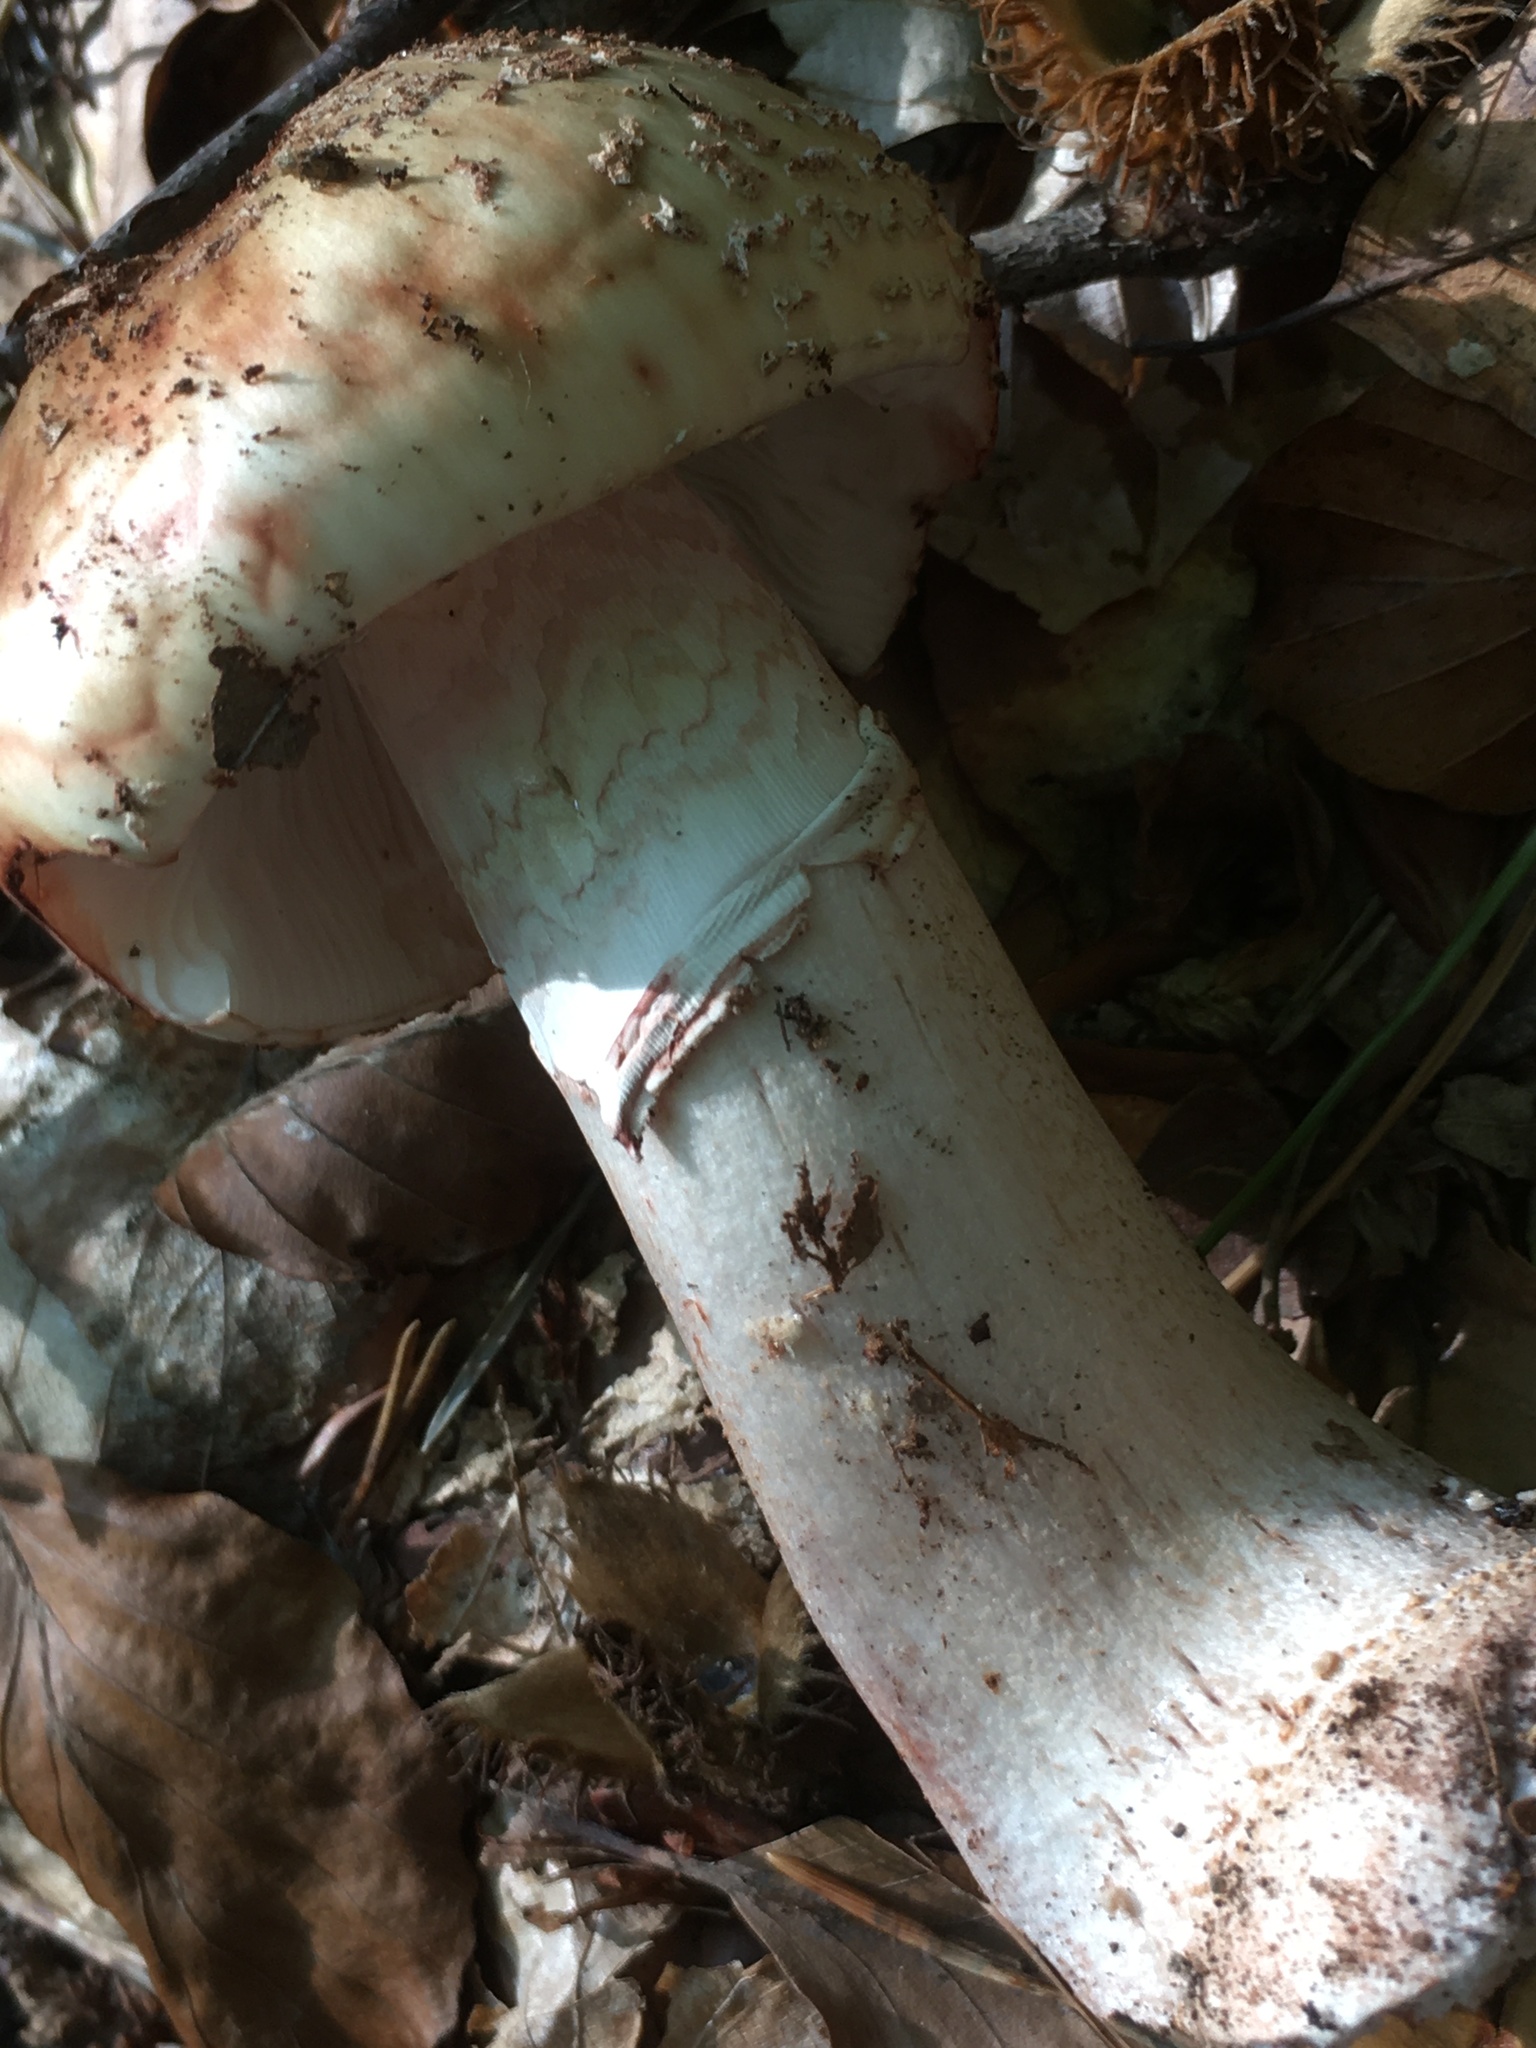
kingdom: Fungi
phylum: Basidiomycota
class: Agaricomycetes
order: Agaricales
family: Amanitaceae
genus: Amanita
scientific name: Amanita rubescens
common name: Blusher
